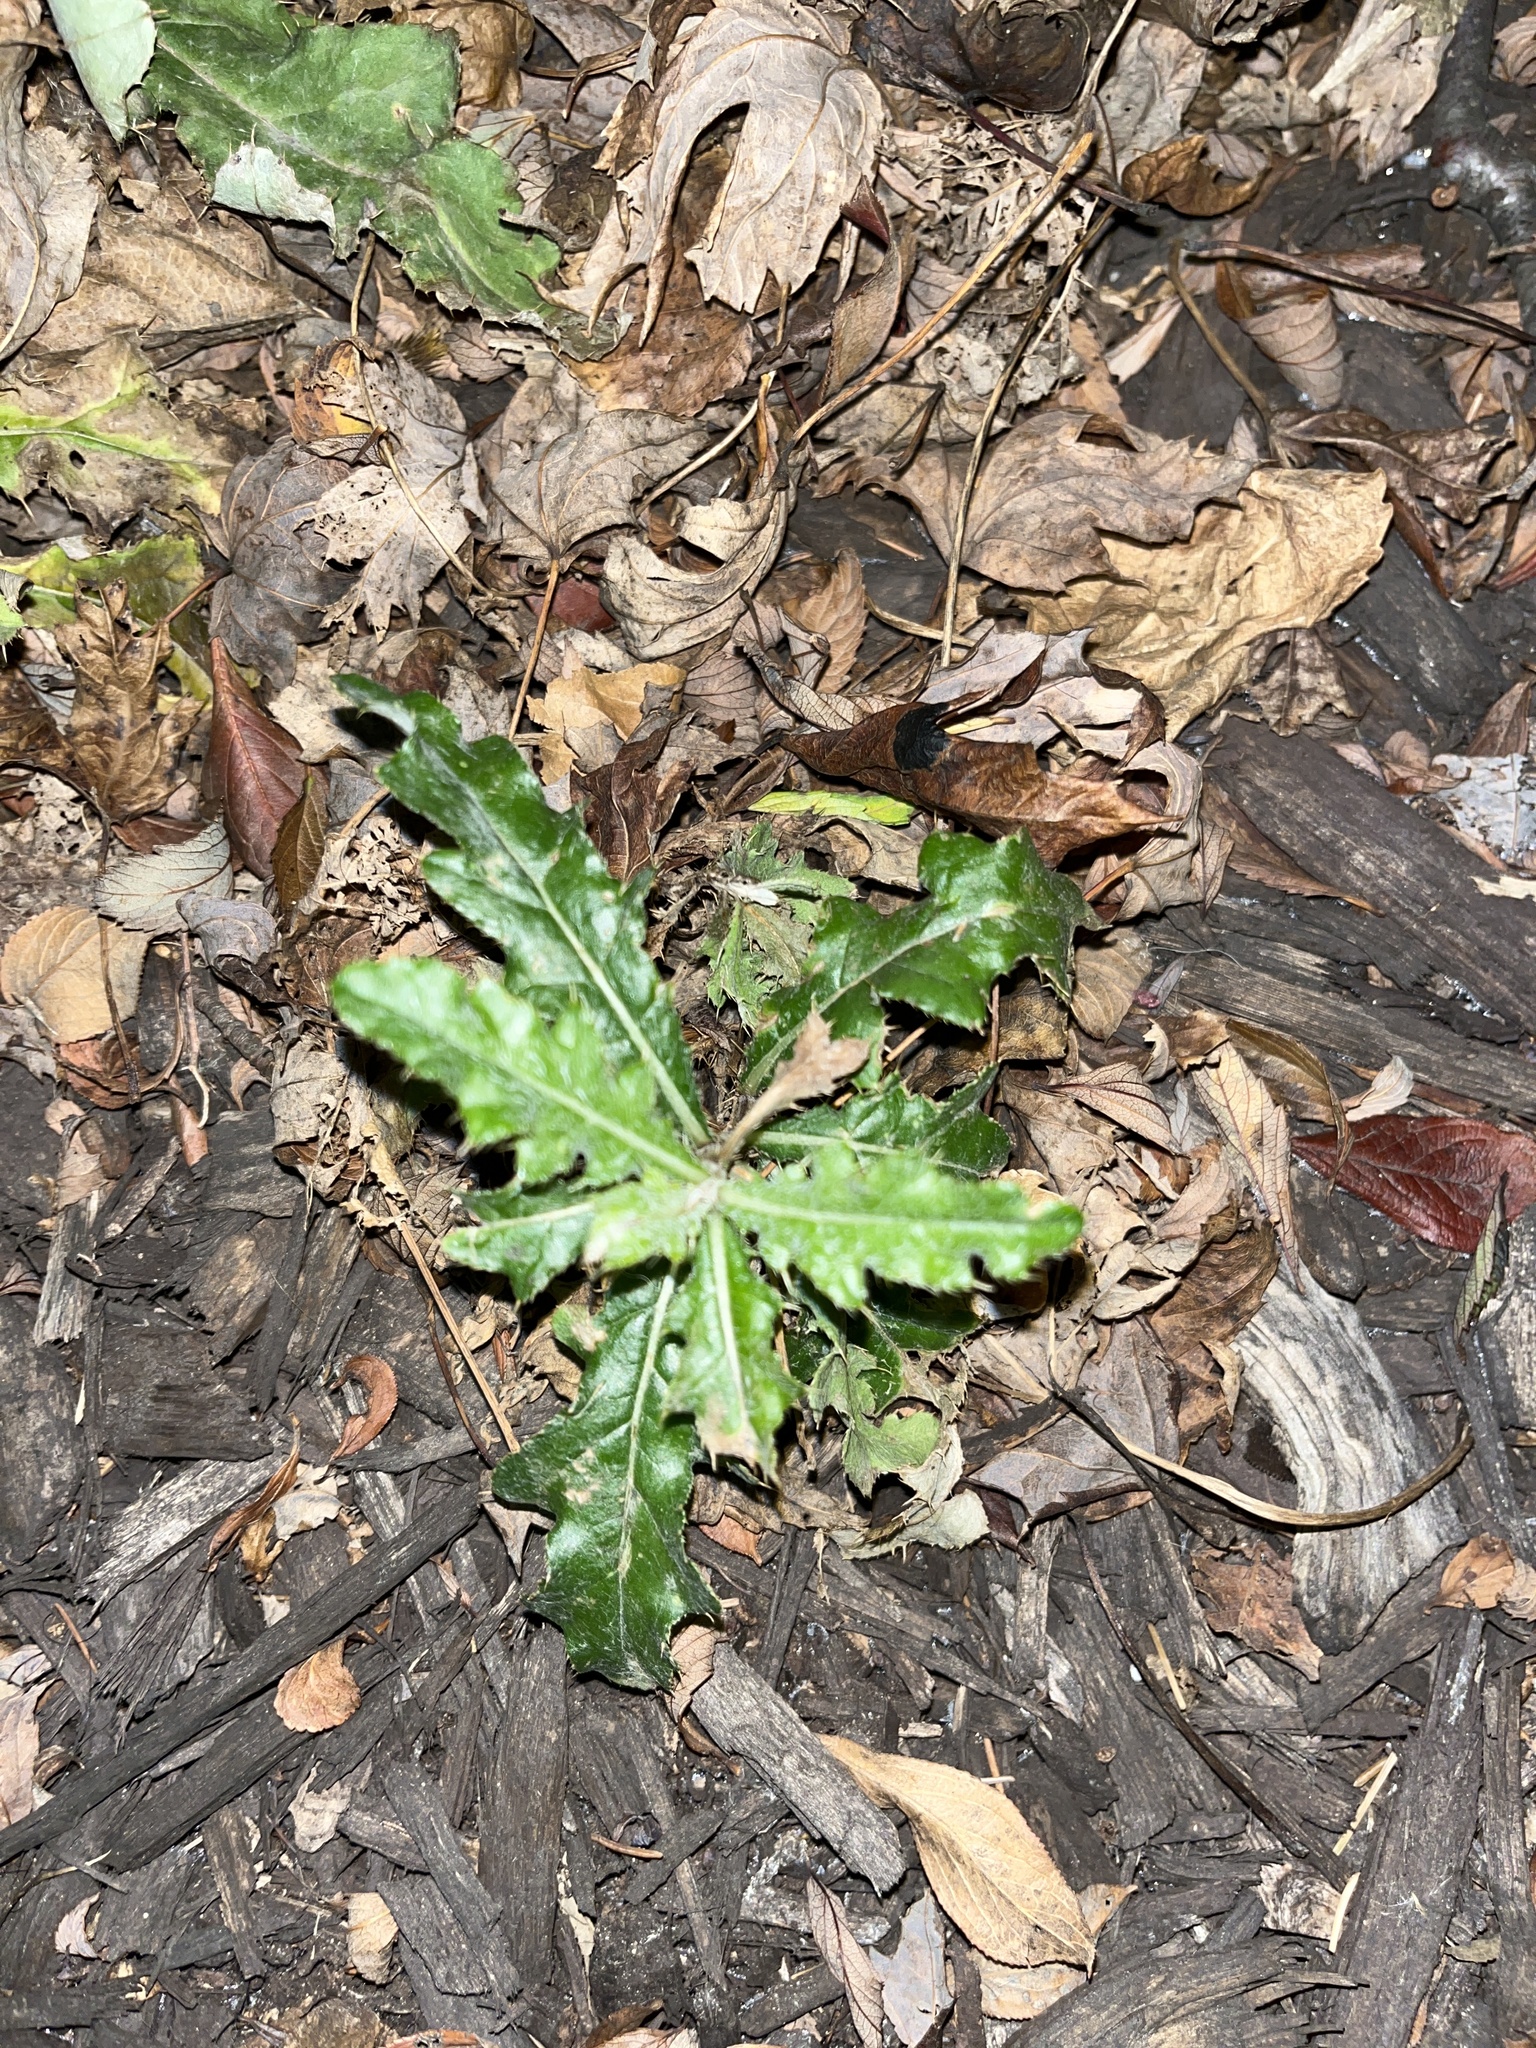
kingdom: Plantae
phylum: Tracheophyta
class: Magnoliopsida
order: Asterales
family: Asteraceae
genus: Cirsium
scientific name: Cirsium arvense
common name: Creeping thistle
